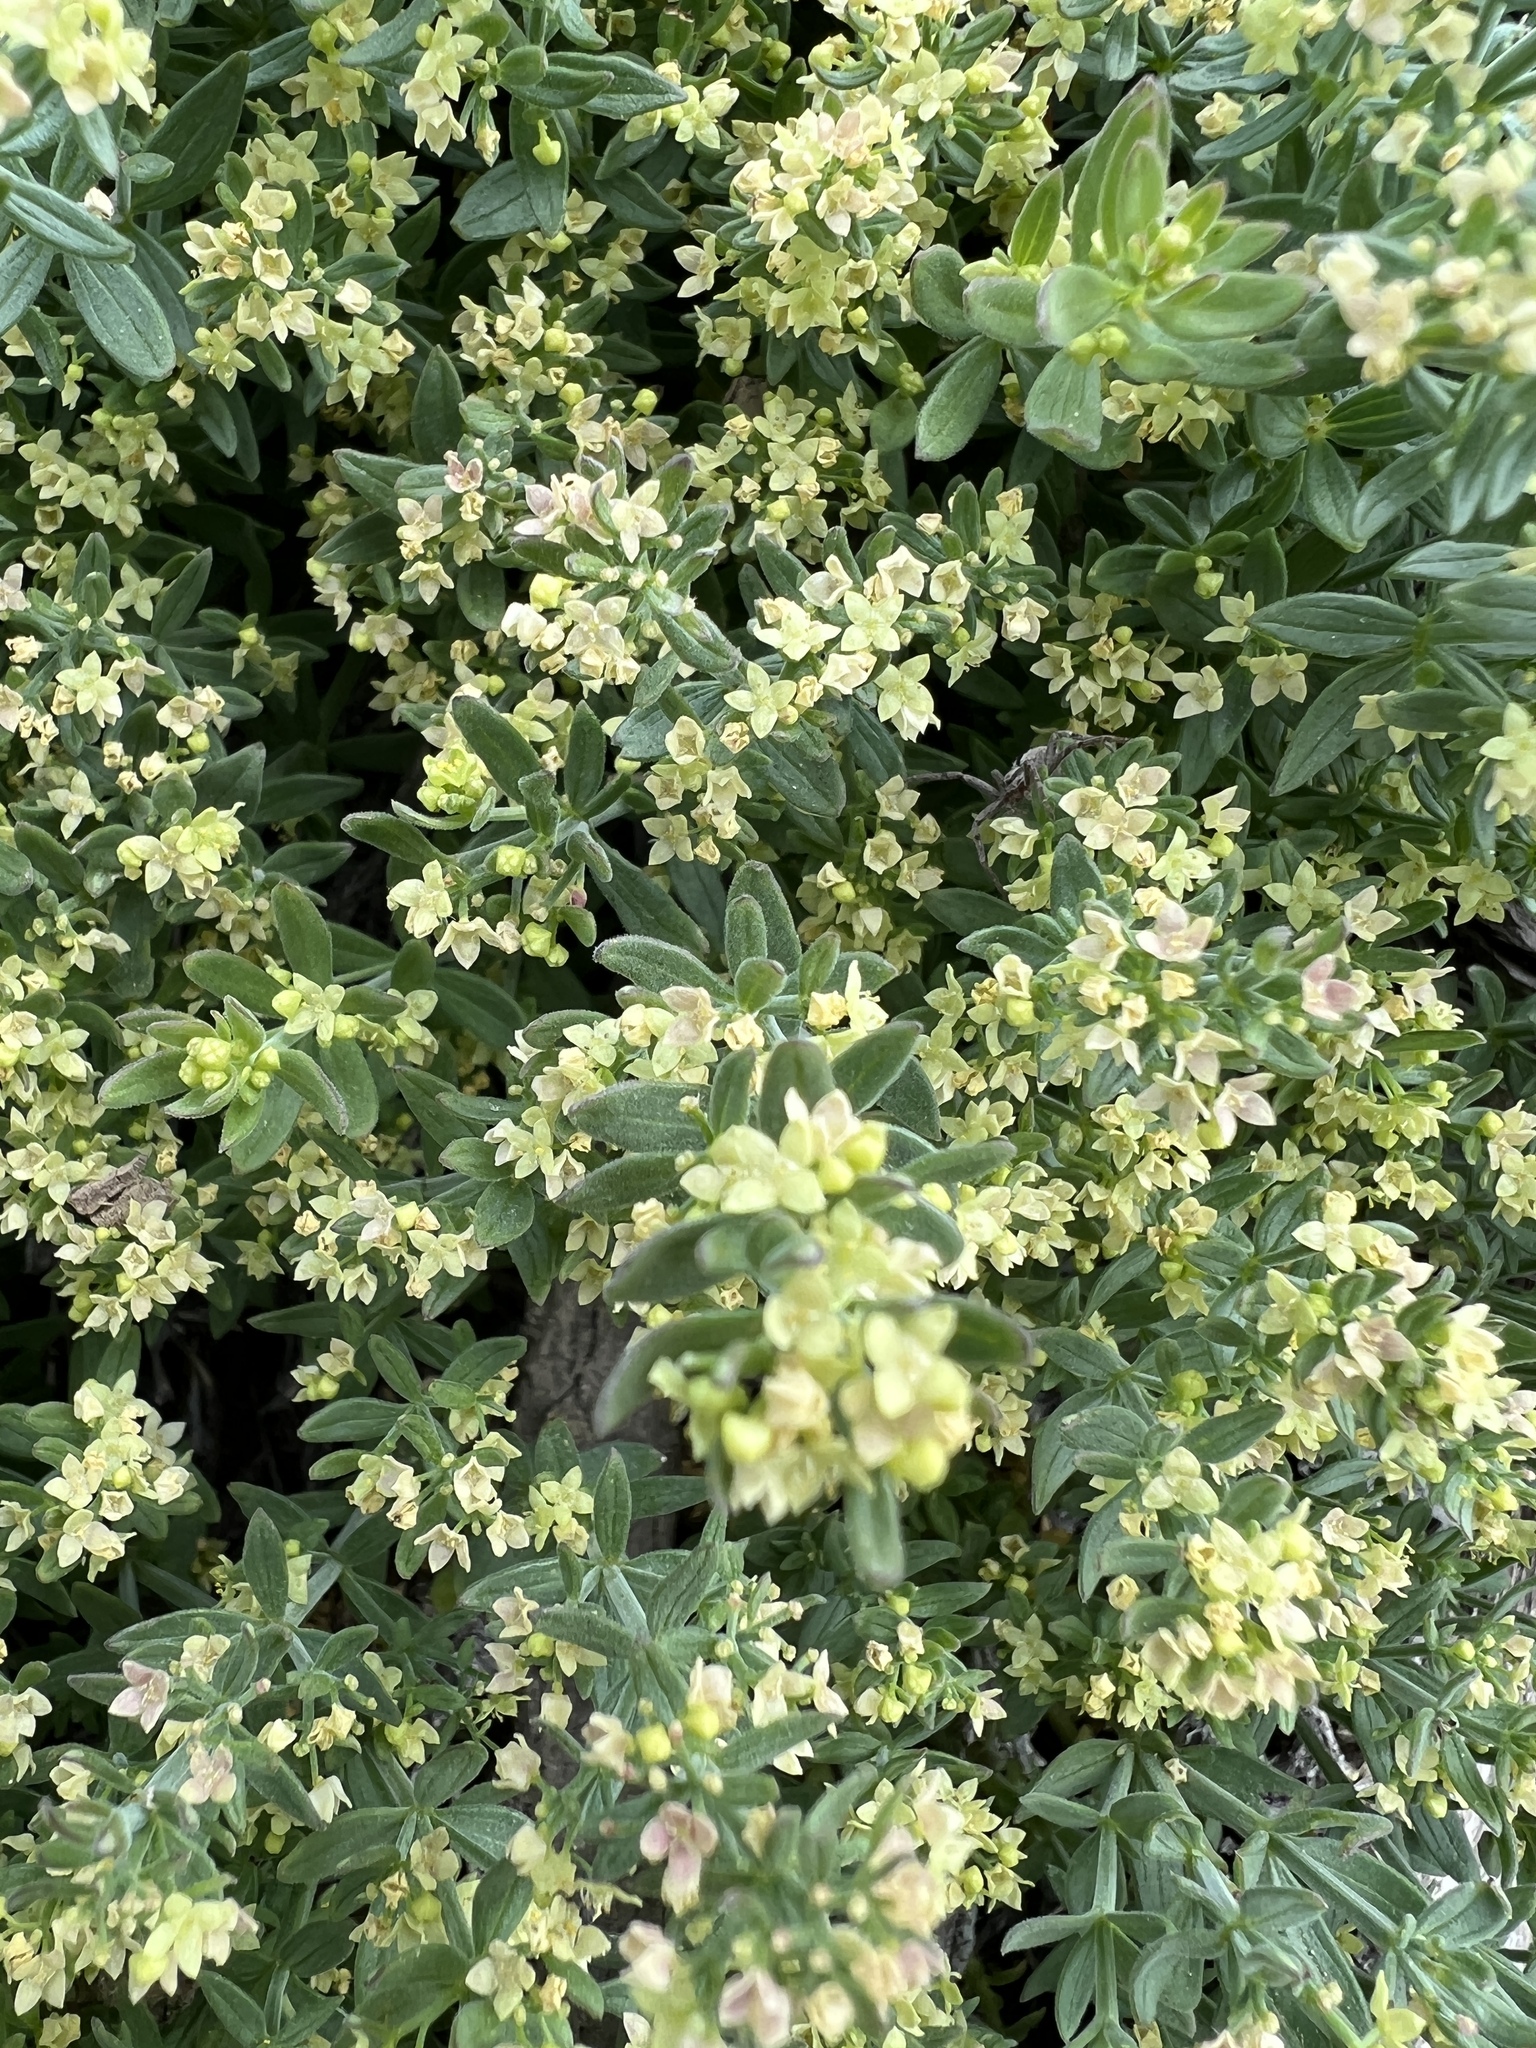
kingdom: Plantae
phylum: Tracheophyta
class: Magnoliopsida
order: Gentianales
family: Rubiaceae
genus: Galium
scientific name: Galium serpenticum
